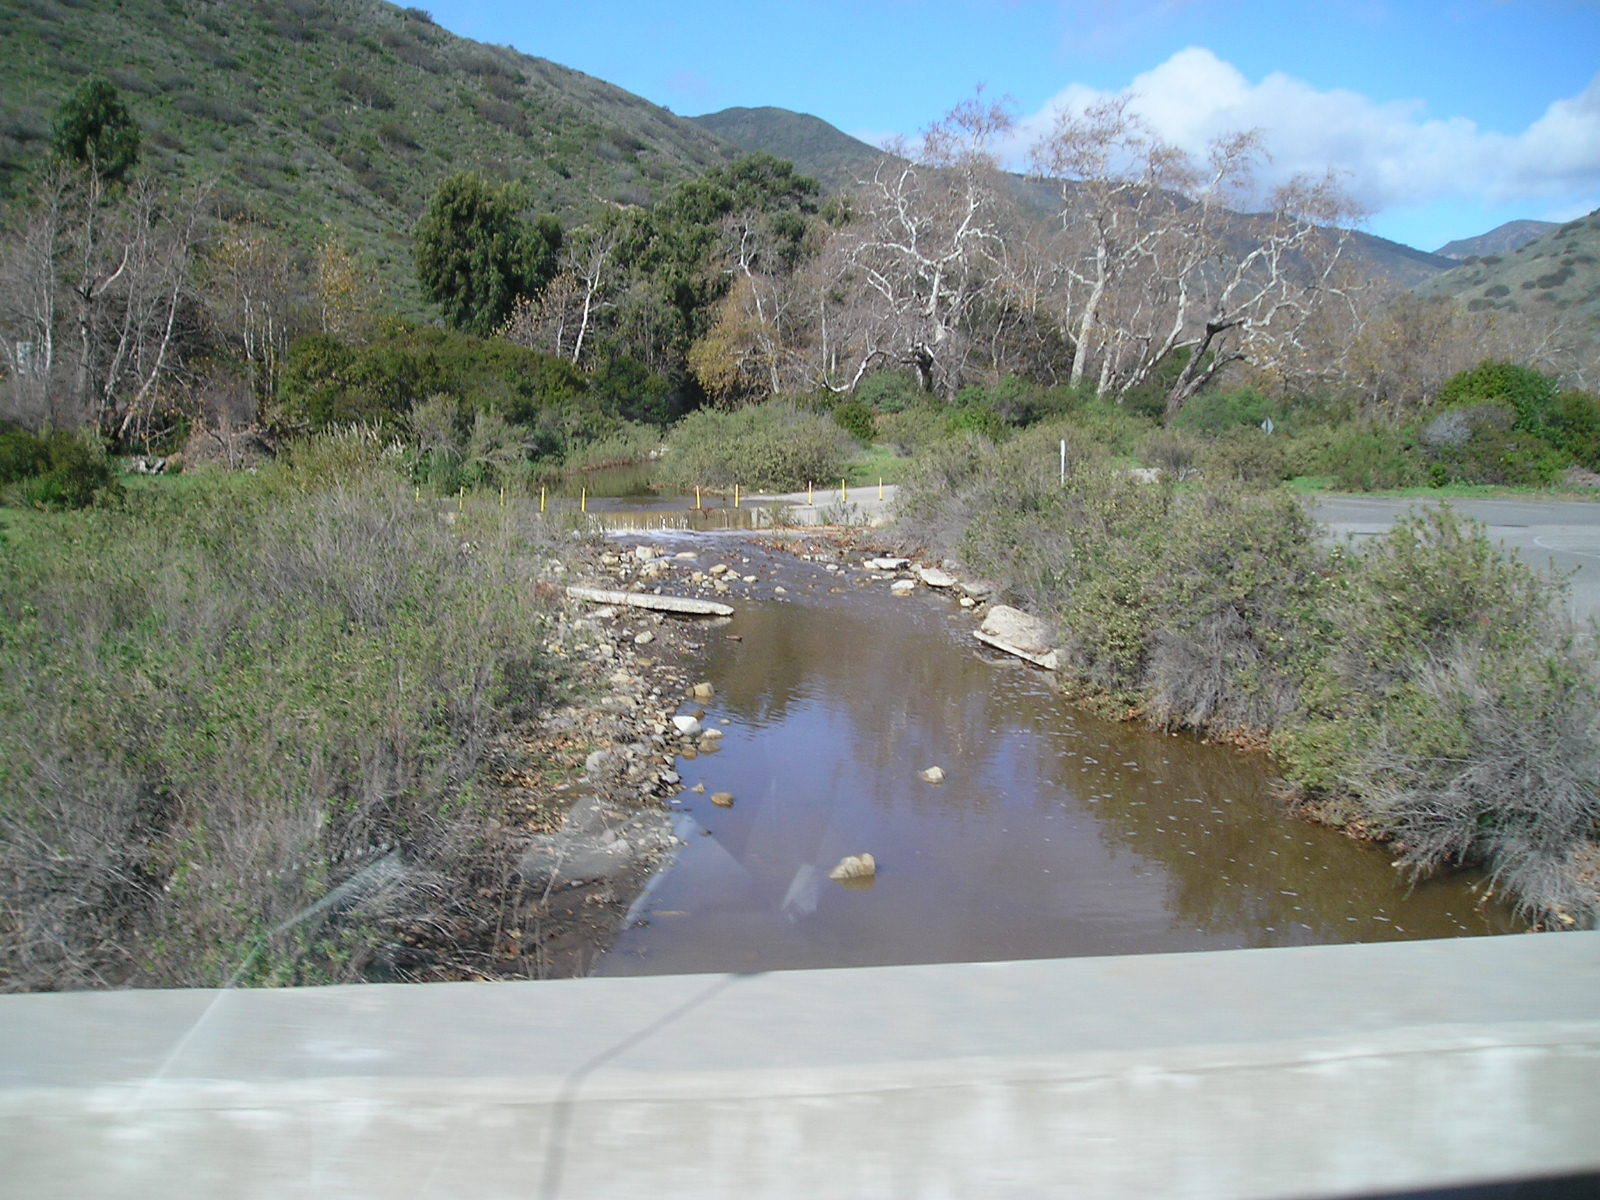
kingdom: Plantae
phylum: Tracheophyta
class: Magnoliopsida
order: Proteales
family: Platanaceae
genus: Platanus
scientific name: Platanus racemosa
